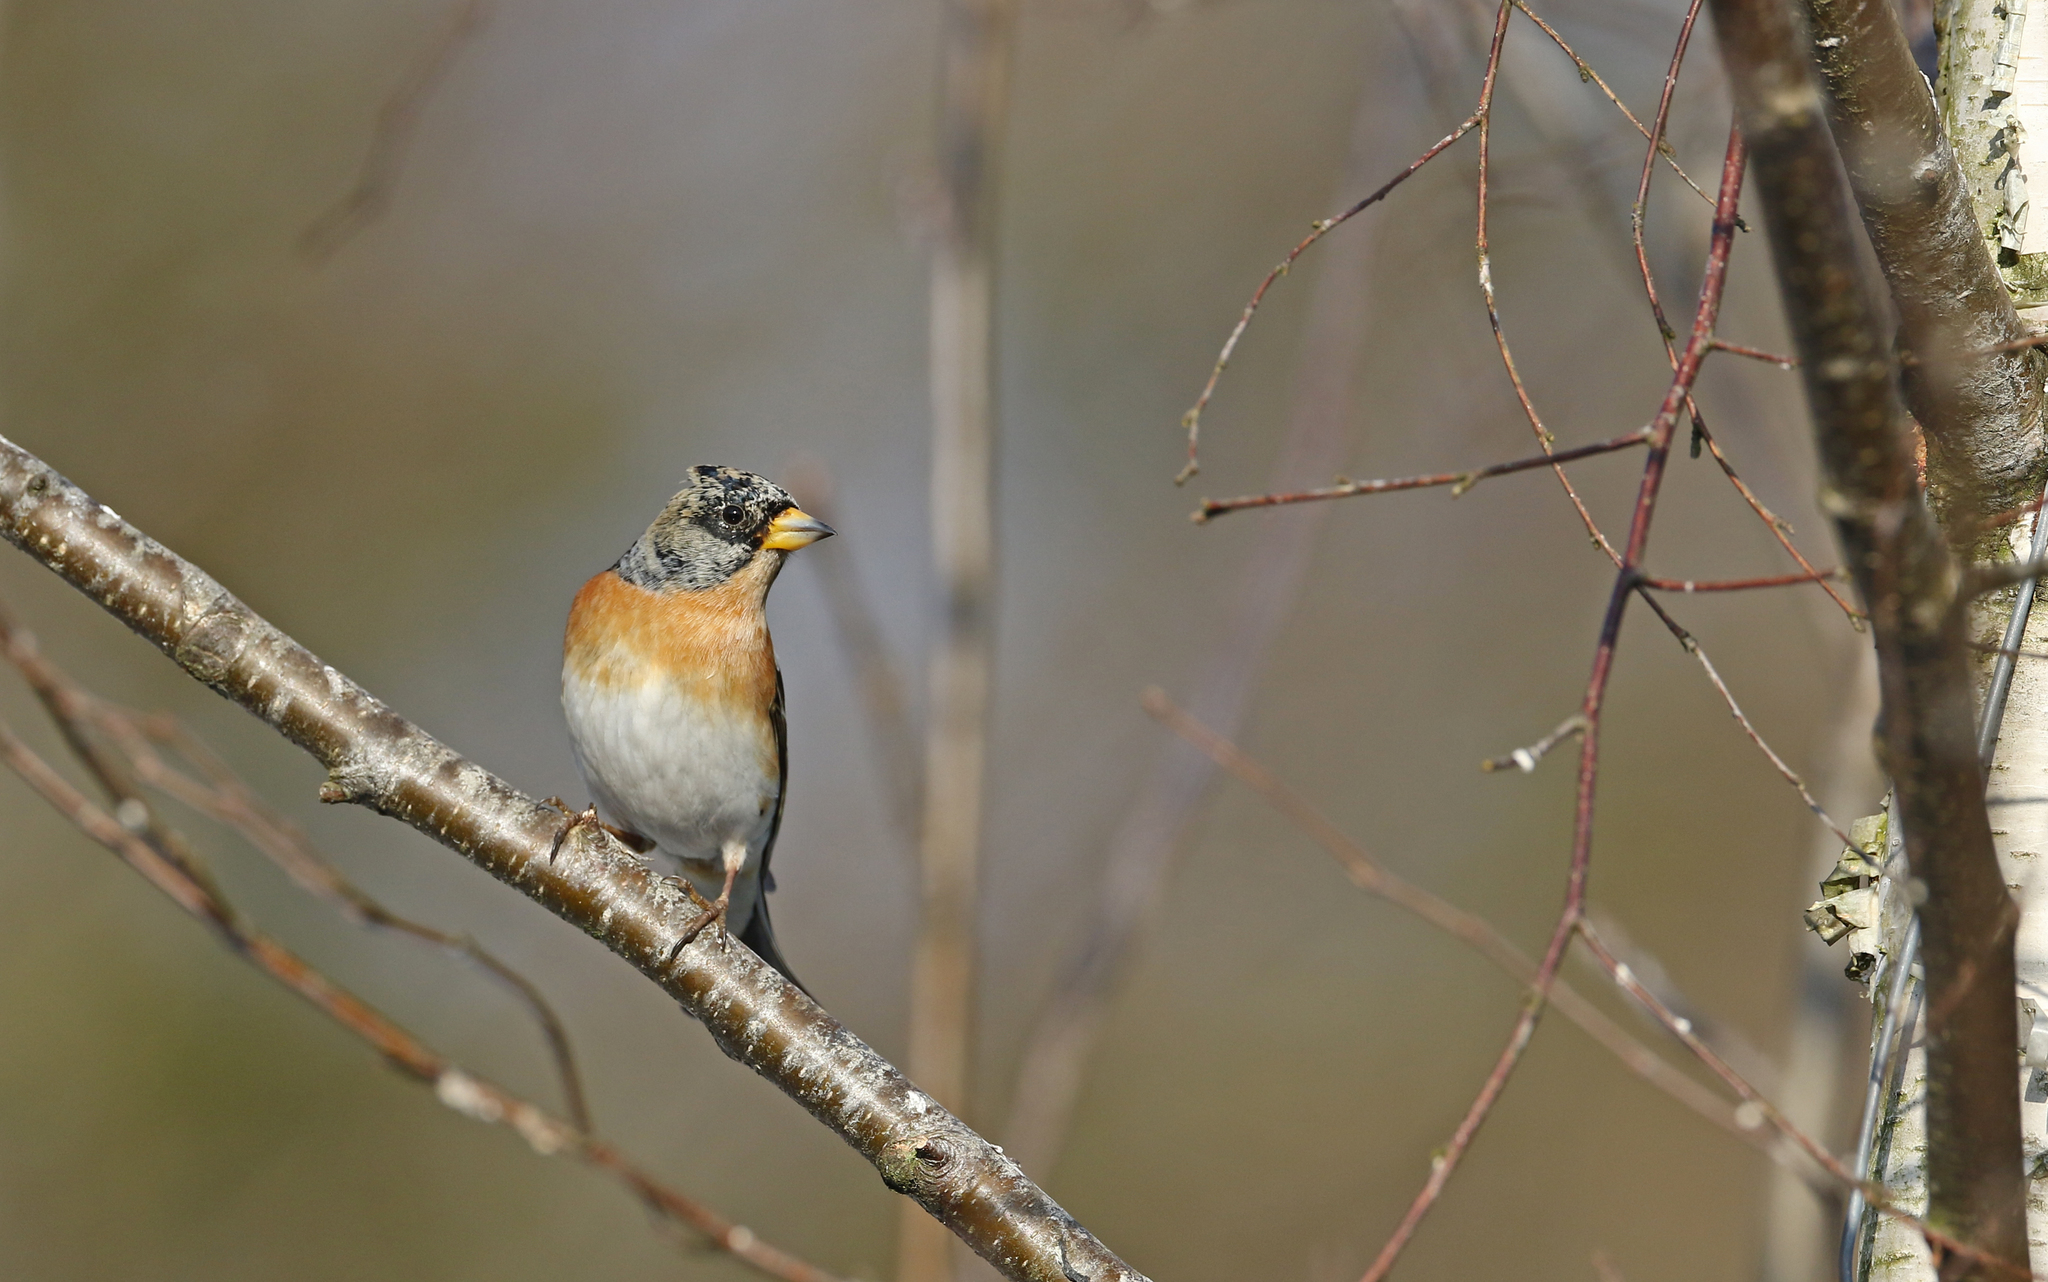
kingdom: Animalia
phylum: Chordata
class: Aves
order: Passeriformes
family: Fringillidae
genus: Fringilla
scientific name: Fringilla montifringilla
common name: Brambling
